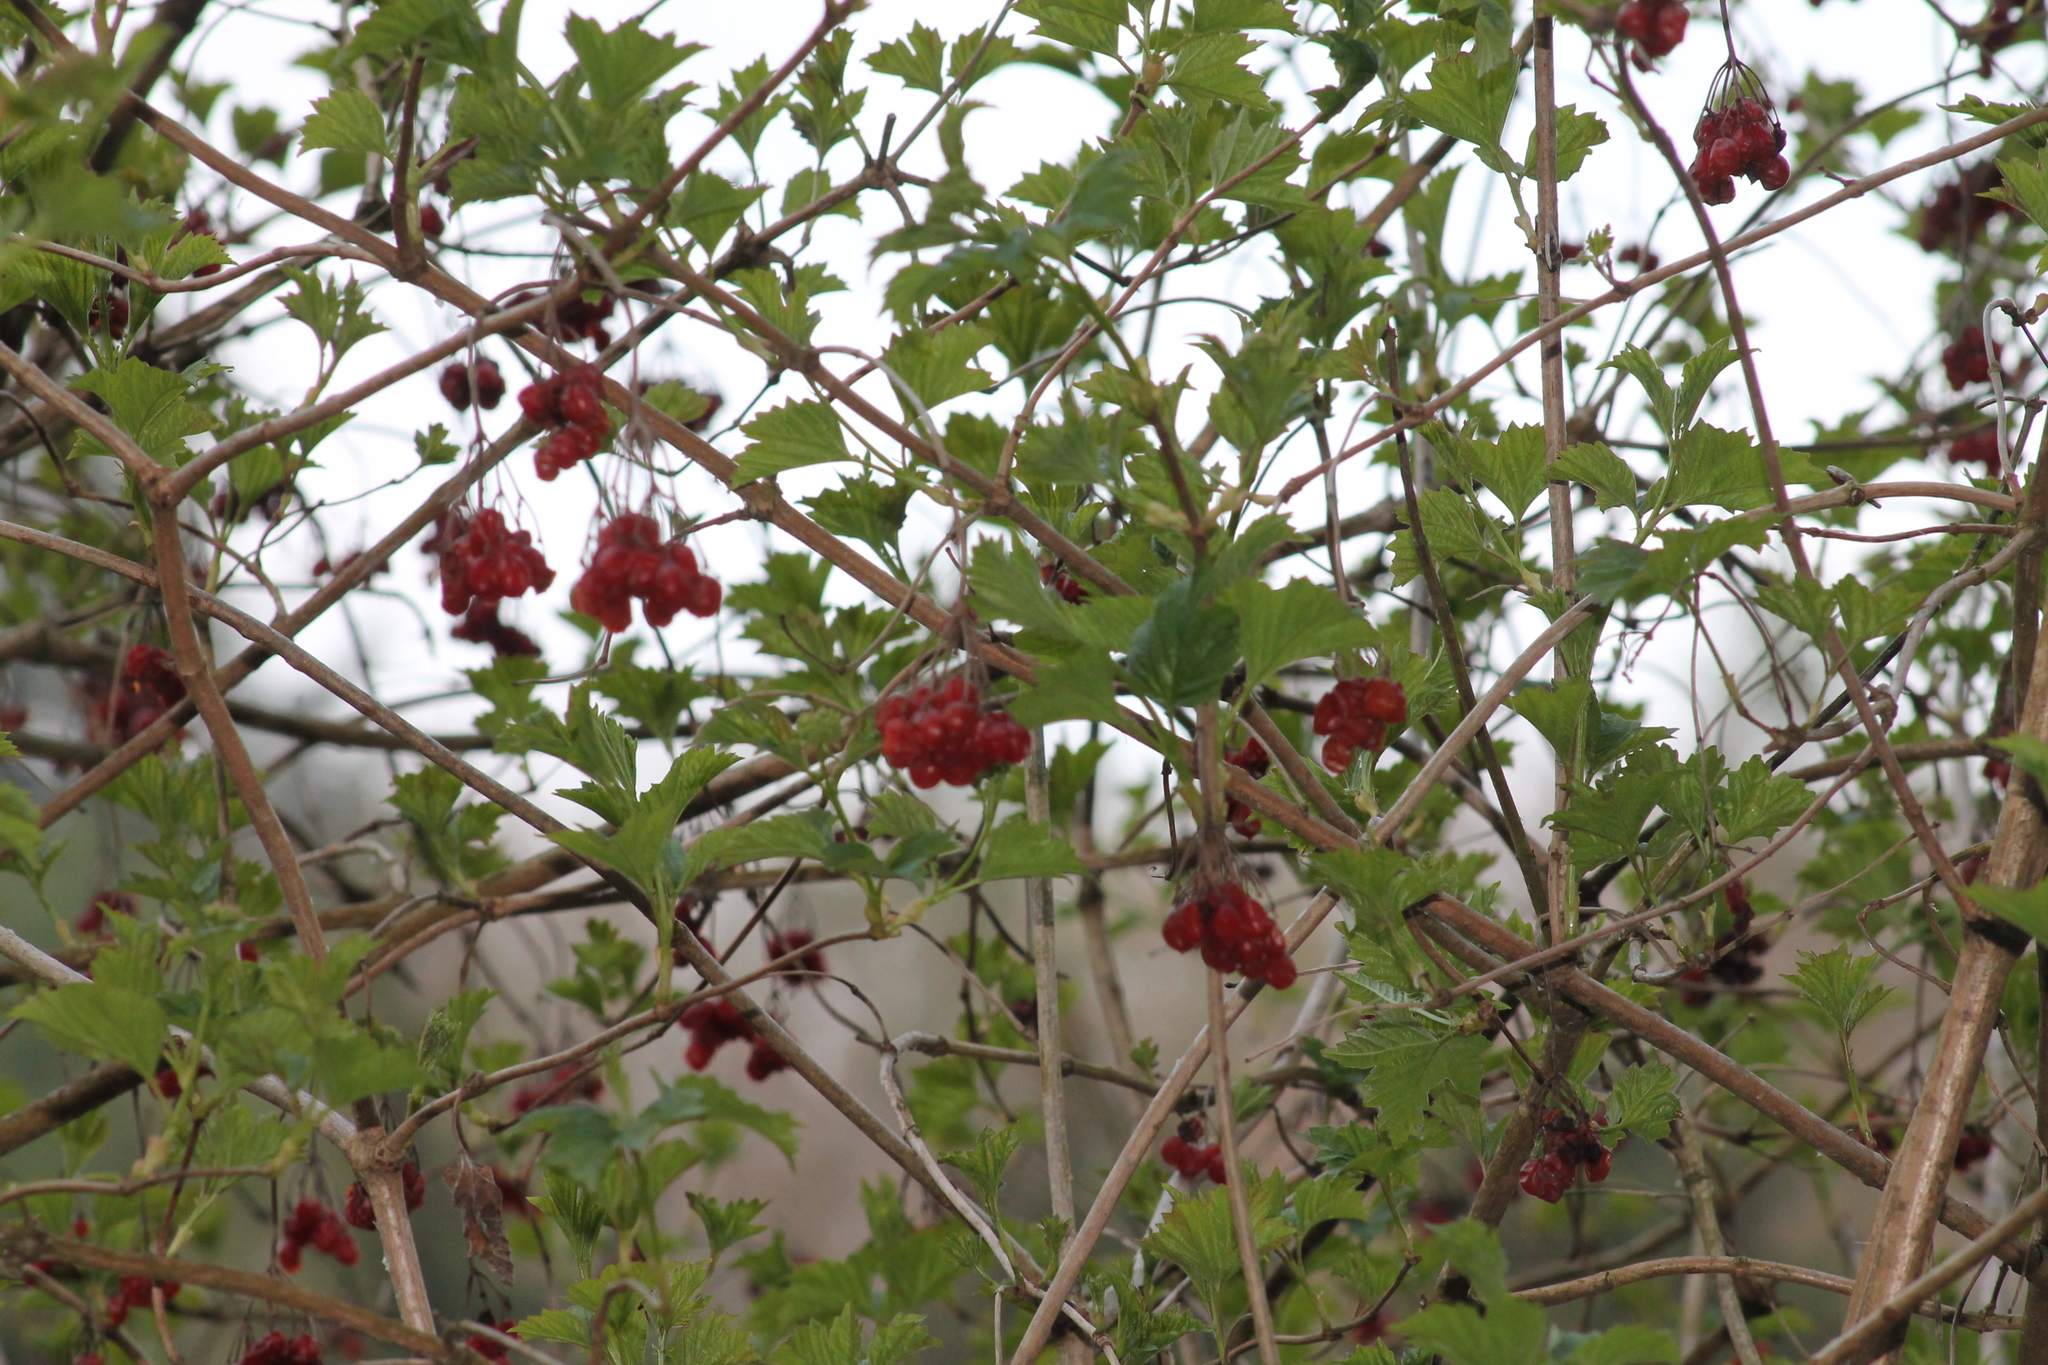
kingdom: Plantae
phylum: Tracheophyta
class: Magnoliopsida
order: Dipsacales
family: Viburnaceae
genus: Viburnum
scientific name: Viburnum opulus
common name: Guelder-rose
